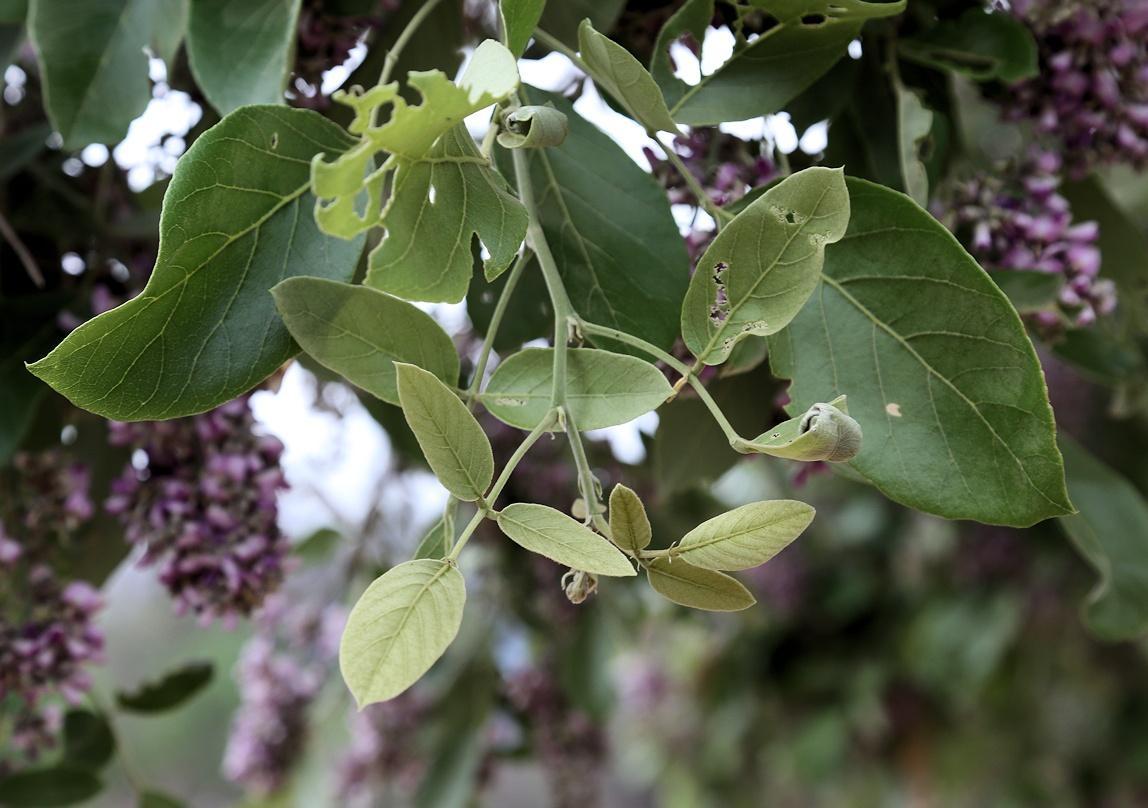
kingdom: Plantae
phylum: Tracheophyta
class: Magnoliopsida
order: Fabales
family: Fabaceae
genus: Philenoptera
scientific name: Philenoptera violacea
